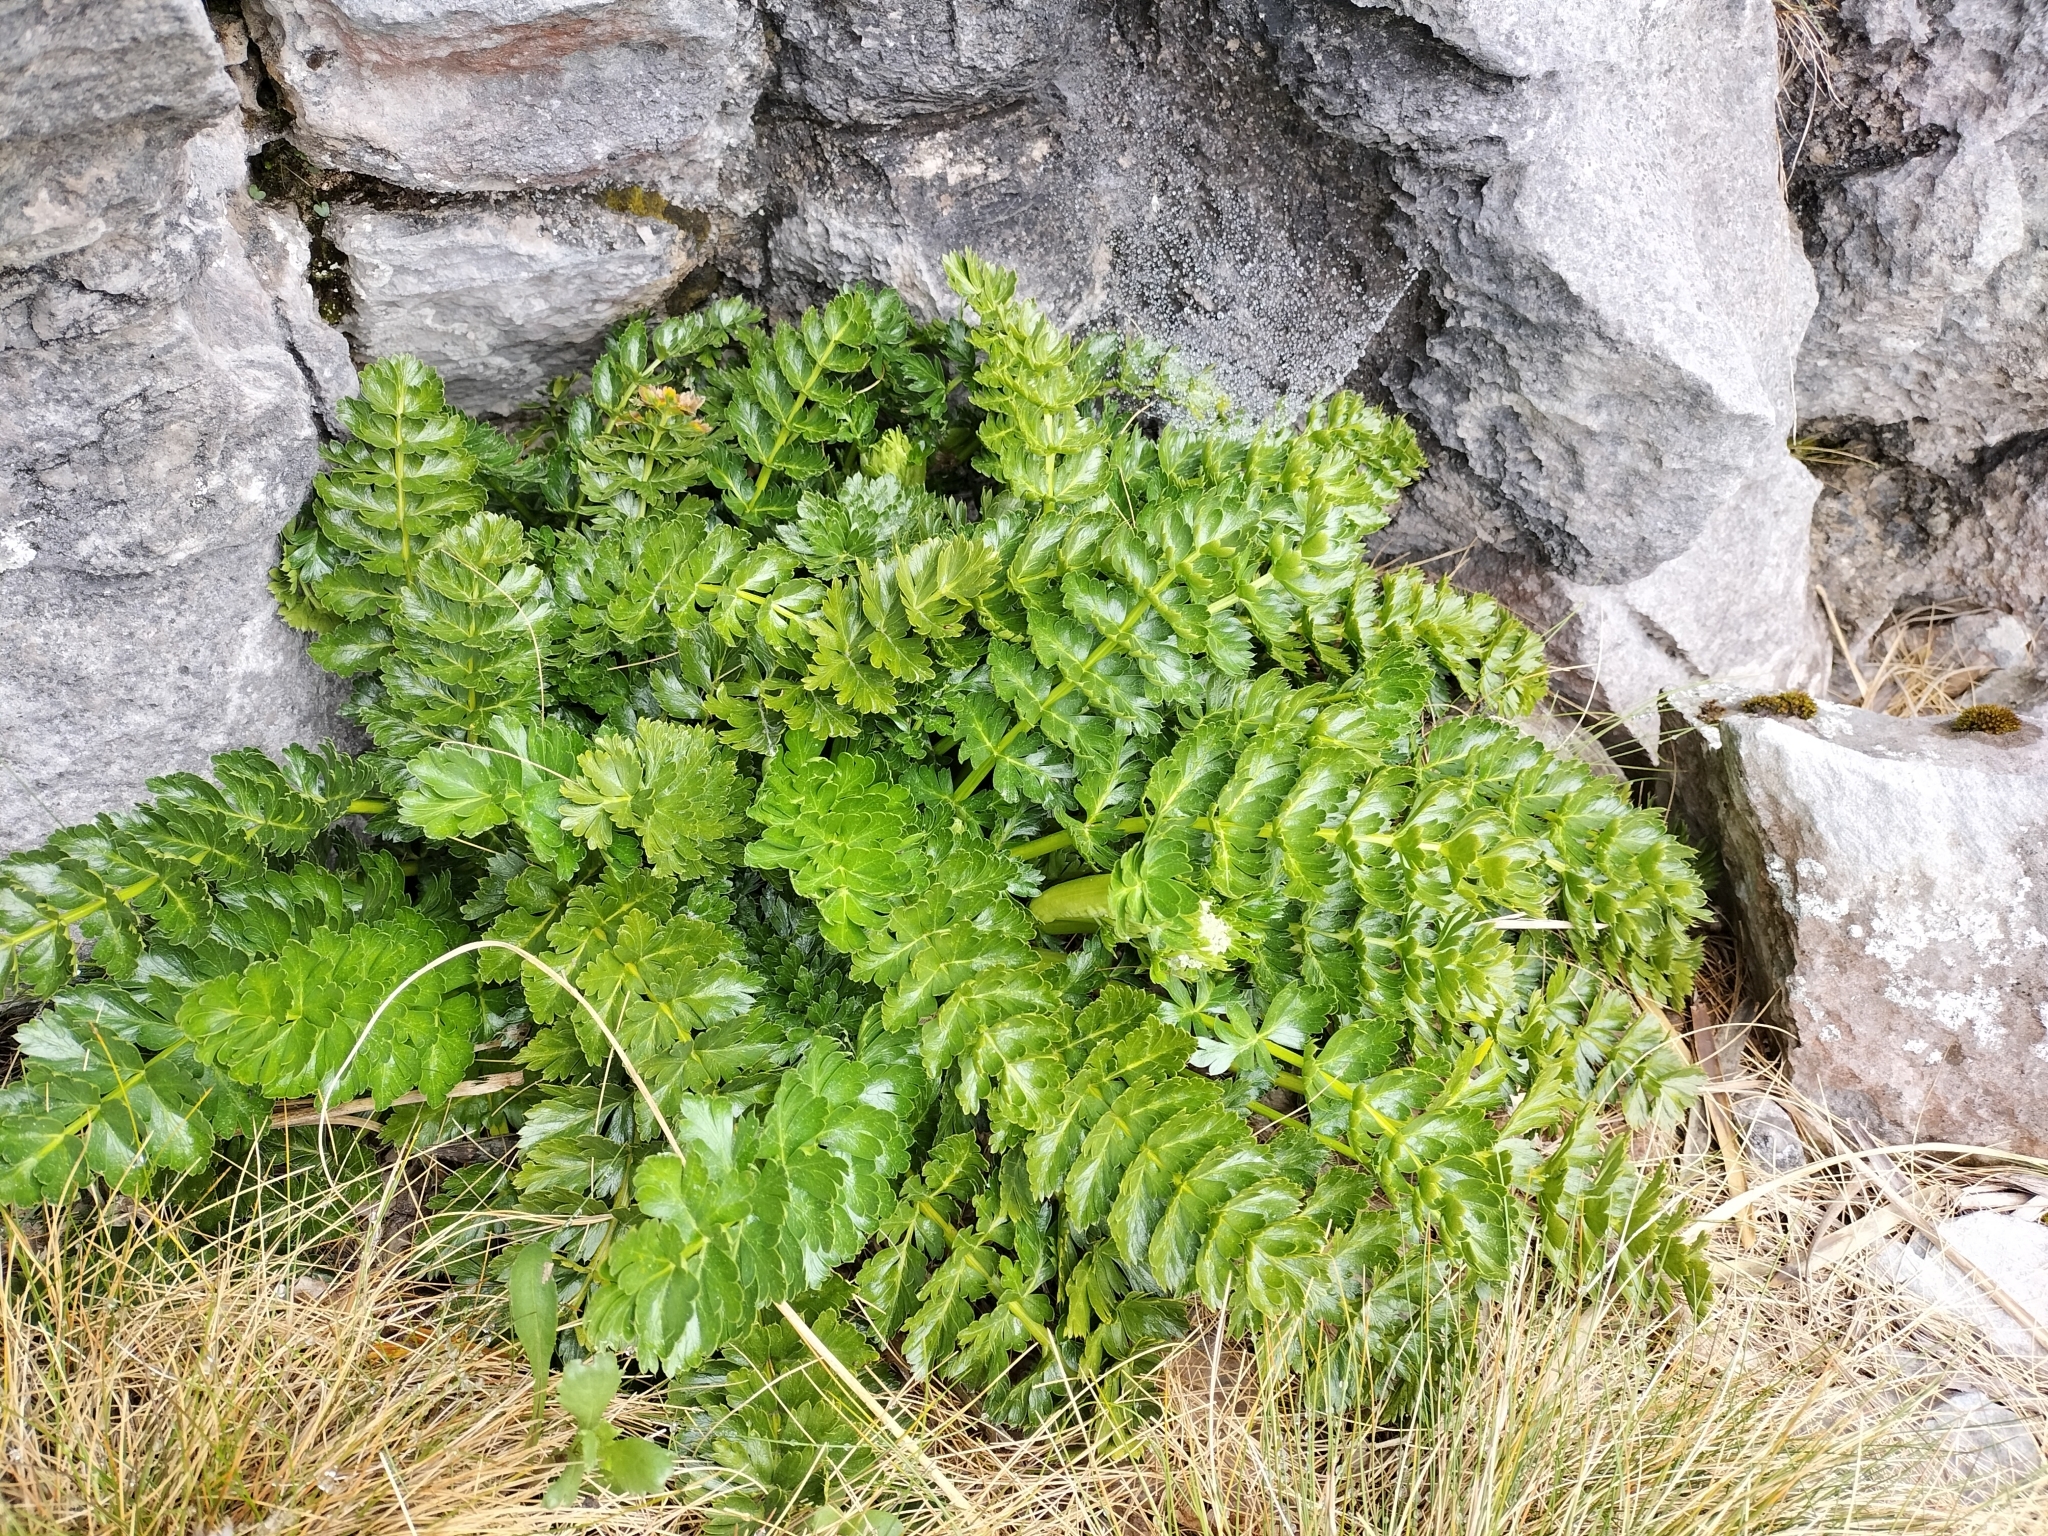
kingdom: Plantae
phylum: Tracheophyta
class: Magnoliopsida
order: Apiales
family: Apiaceae
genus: Anisotome
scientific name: Anisotome pilifera
